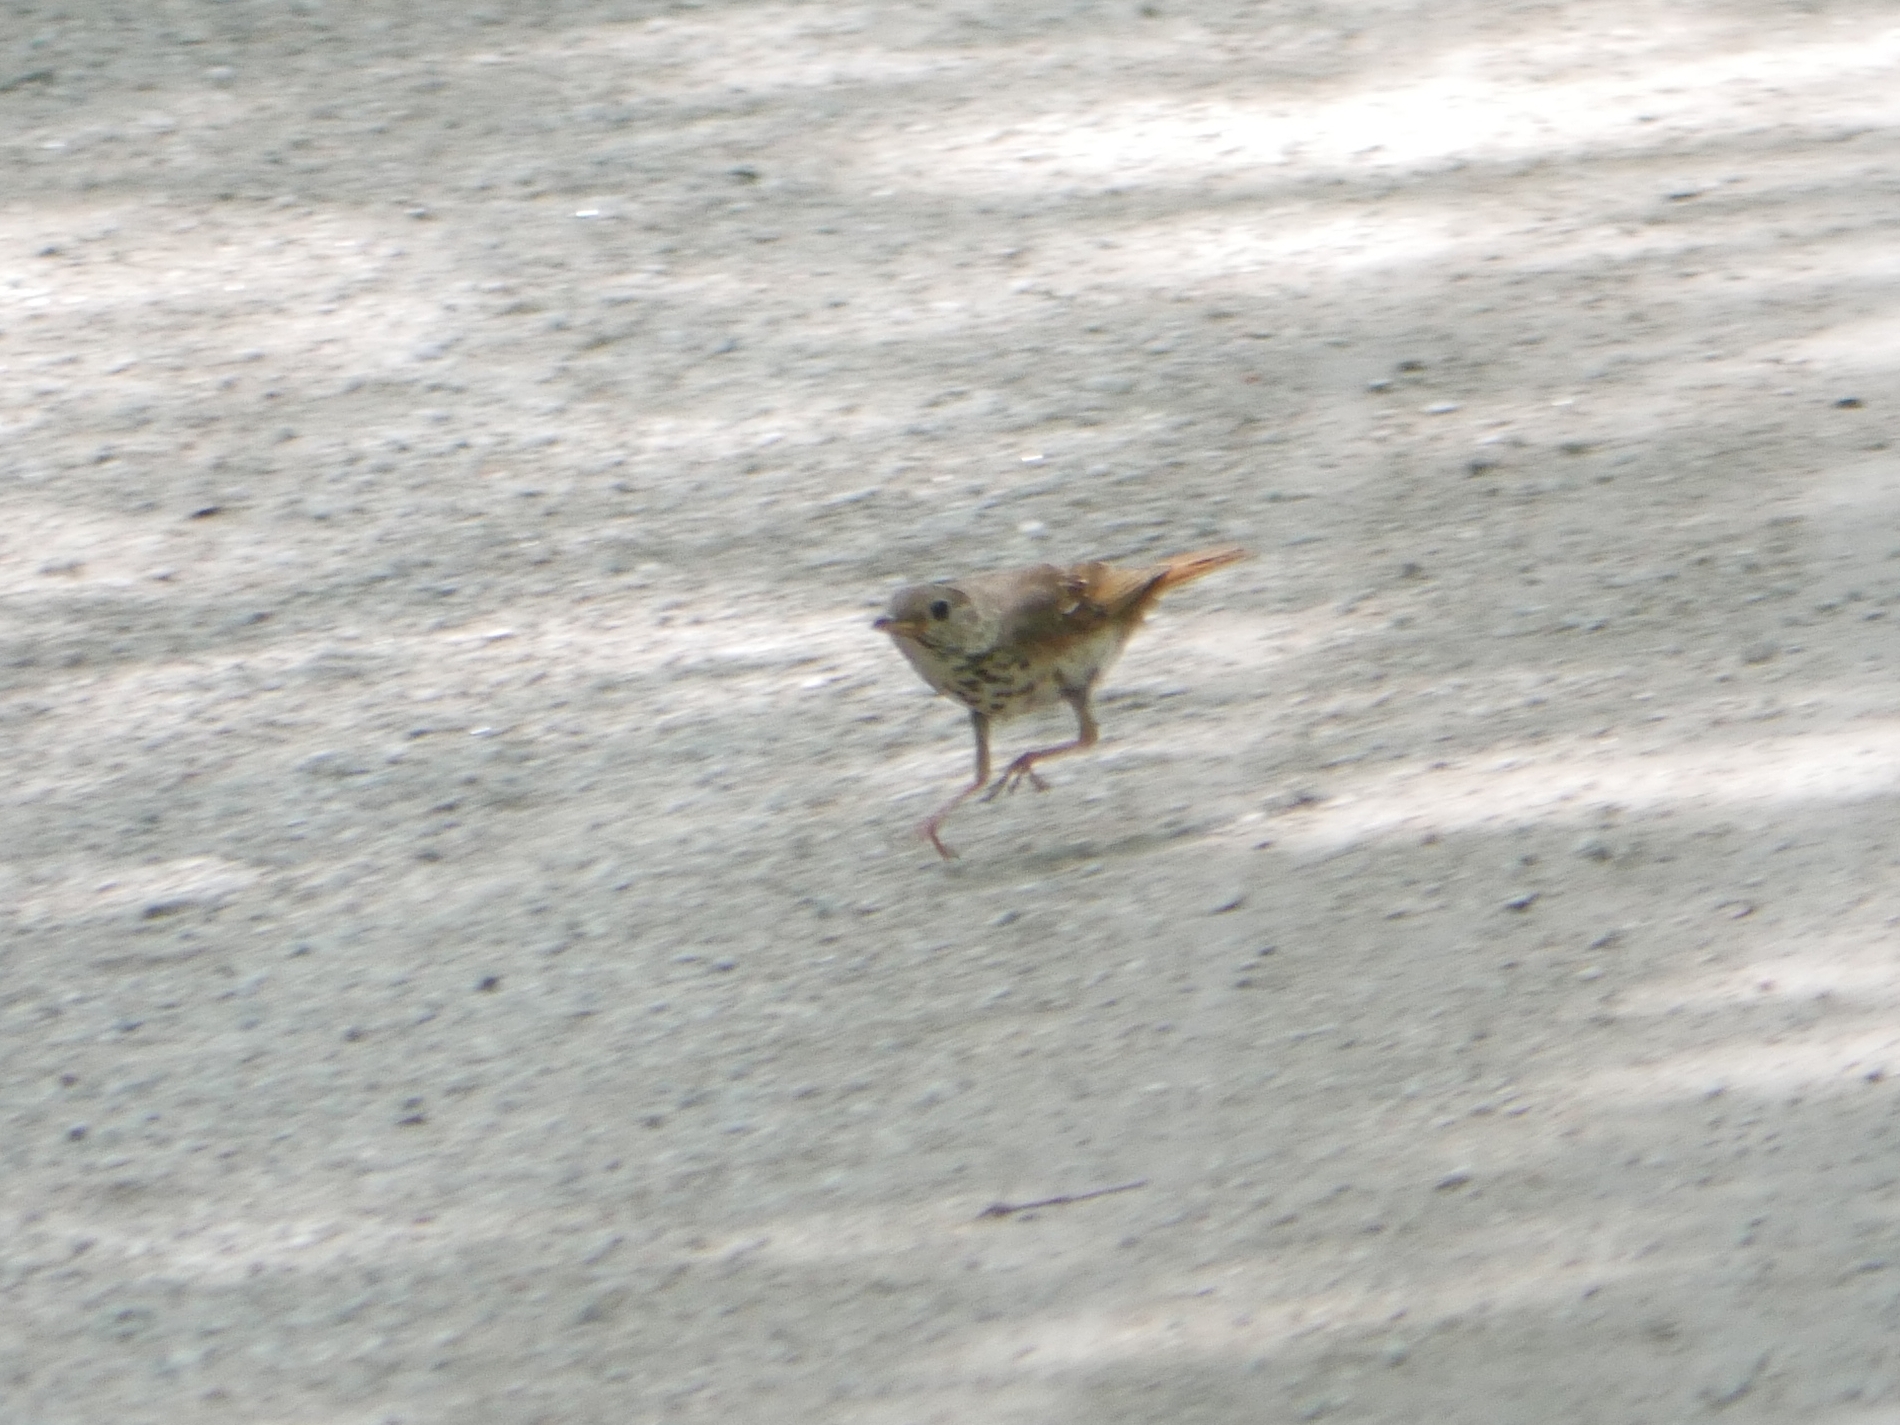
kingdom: Animalia
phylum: Chordata
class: Aves
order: Passeriformes
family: Turdidae
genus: Catharus
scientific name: Catharus guttatus
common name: Hermit thrush
